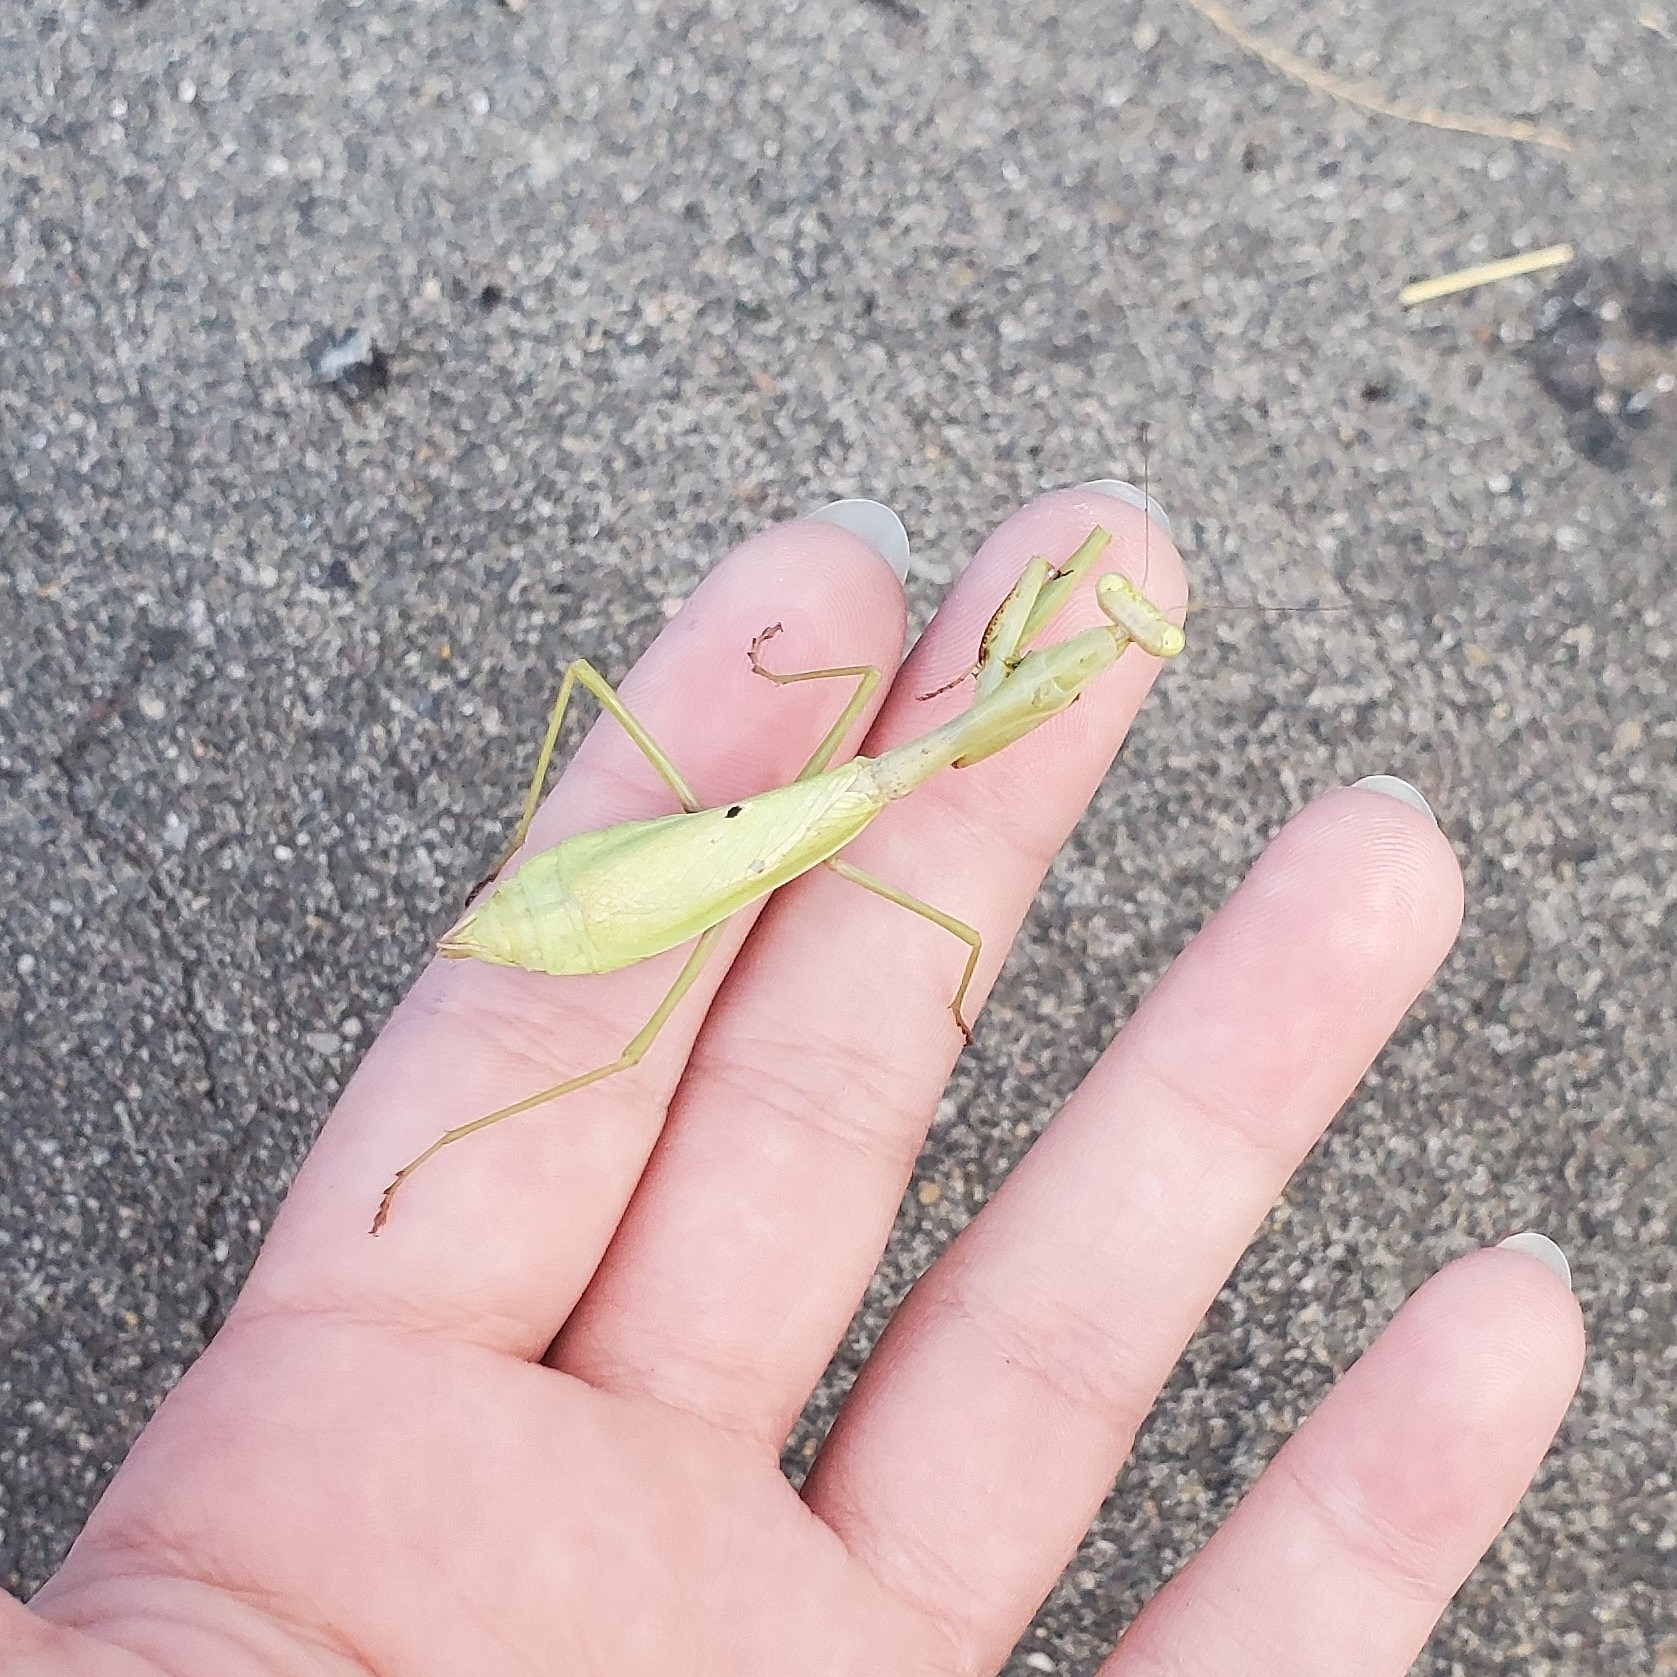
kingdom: Animalia
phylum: Arthropoda
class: Insecta
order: Mantodea
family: Mantidae
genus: Stagmomantis
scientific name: Stagmomantis carolina
